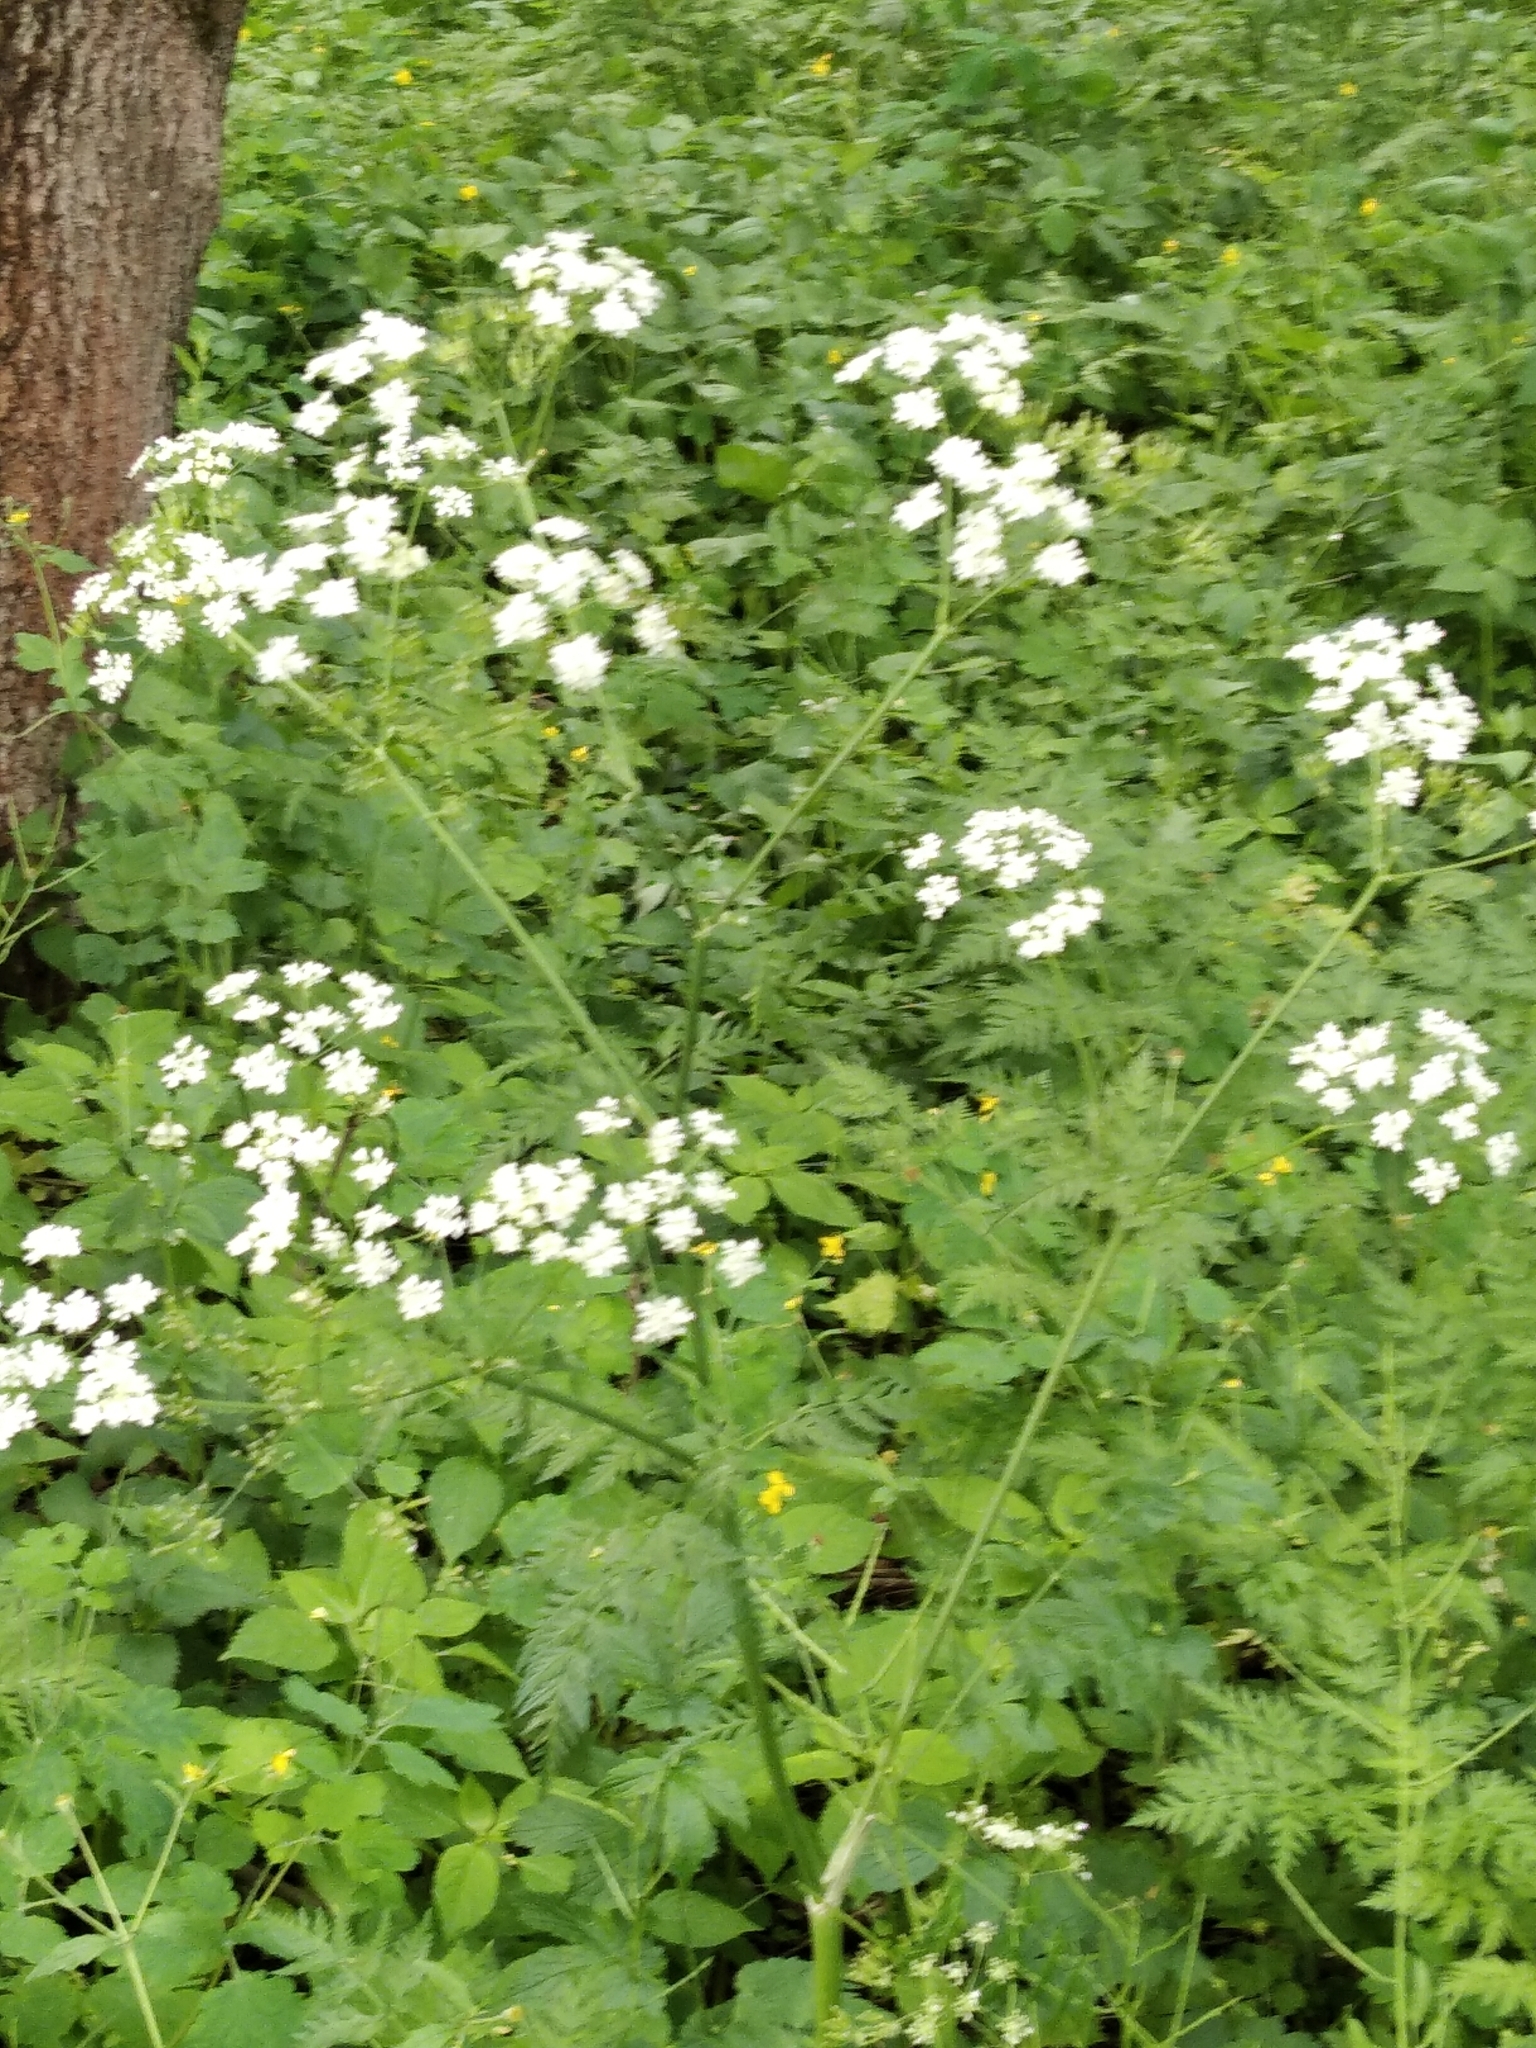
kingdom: Plantae
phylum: Tracheophyta
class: Magnoliopsida
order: Apiales
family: Apiaceae
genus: Anthriscus
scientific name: Anthriscus sylvestris
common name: Cow parsley
